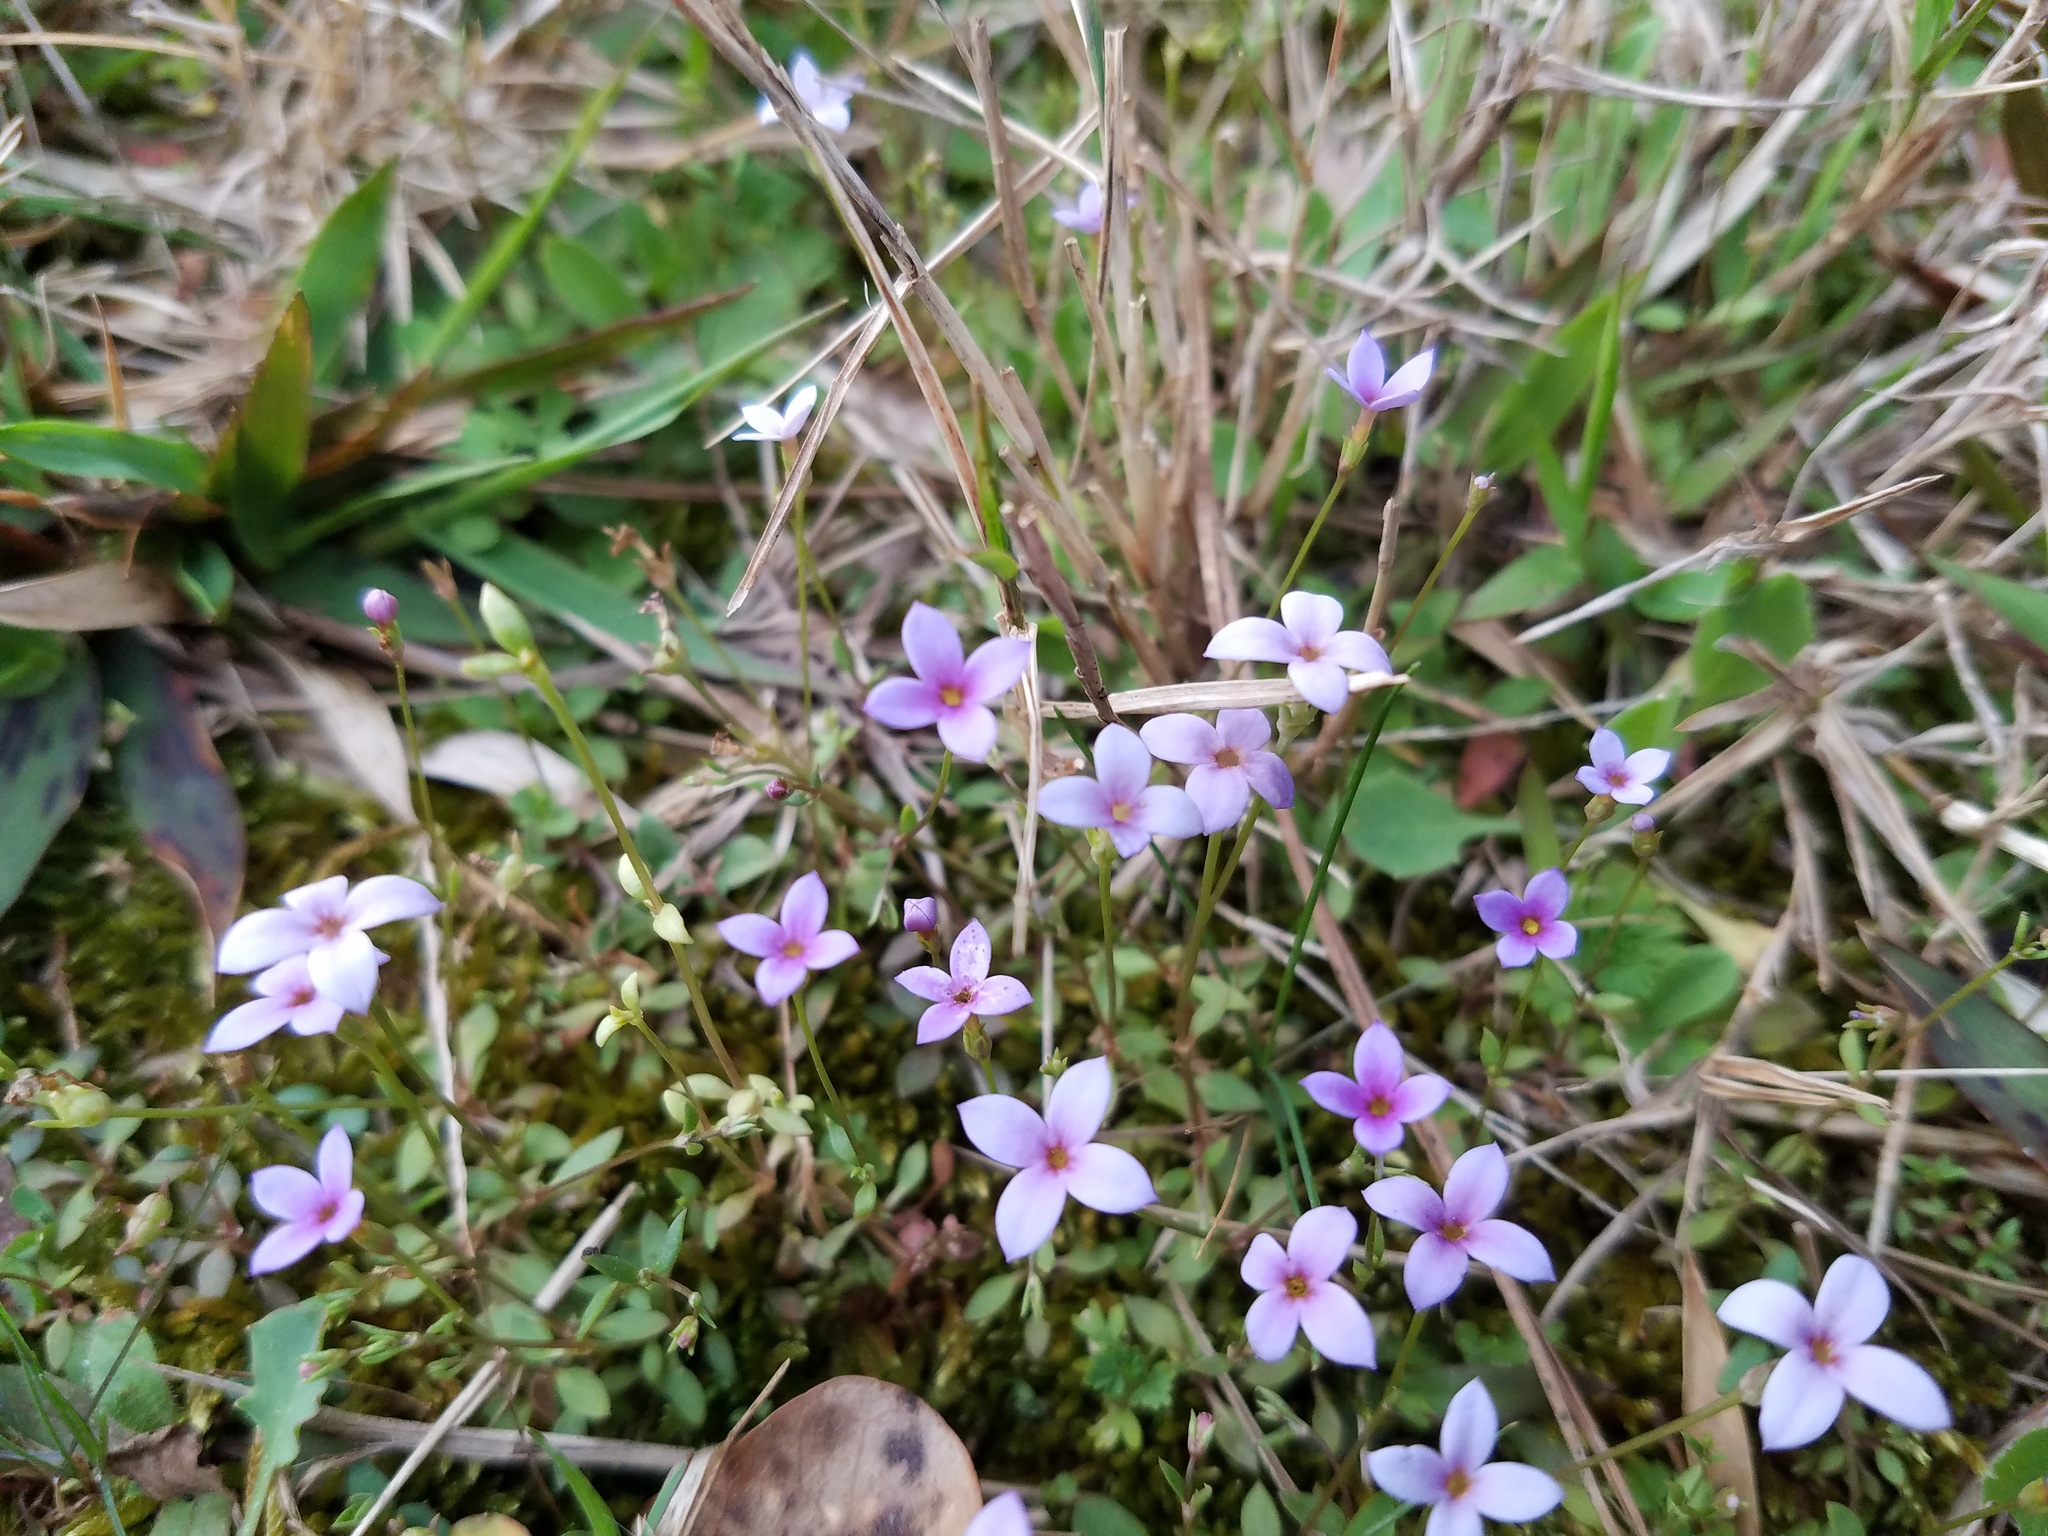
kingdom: Plantae
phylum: Tracheophyta
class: Magnoliopsida
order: Gentianales
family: Rubiaceae
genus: Houstonia
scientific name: Houstonia pusilla
